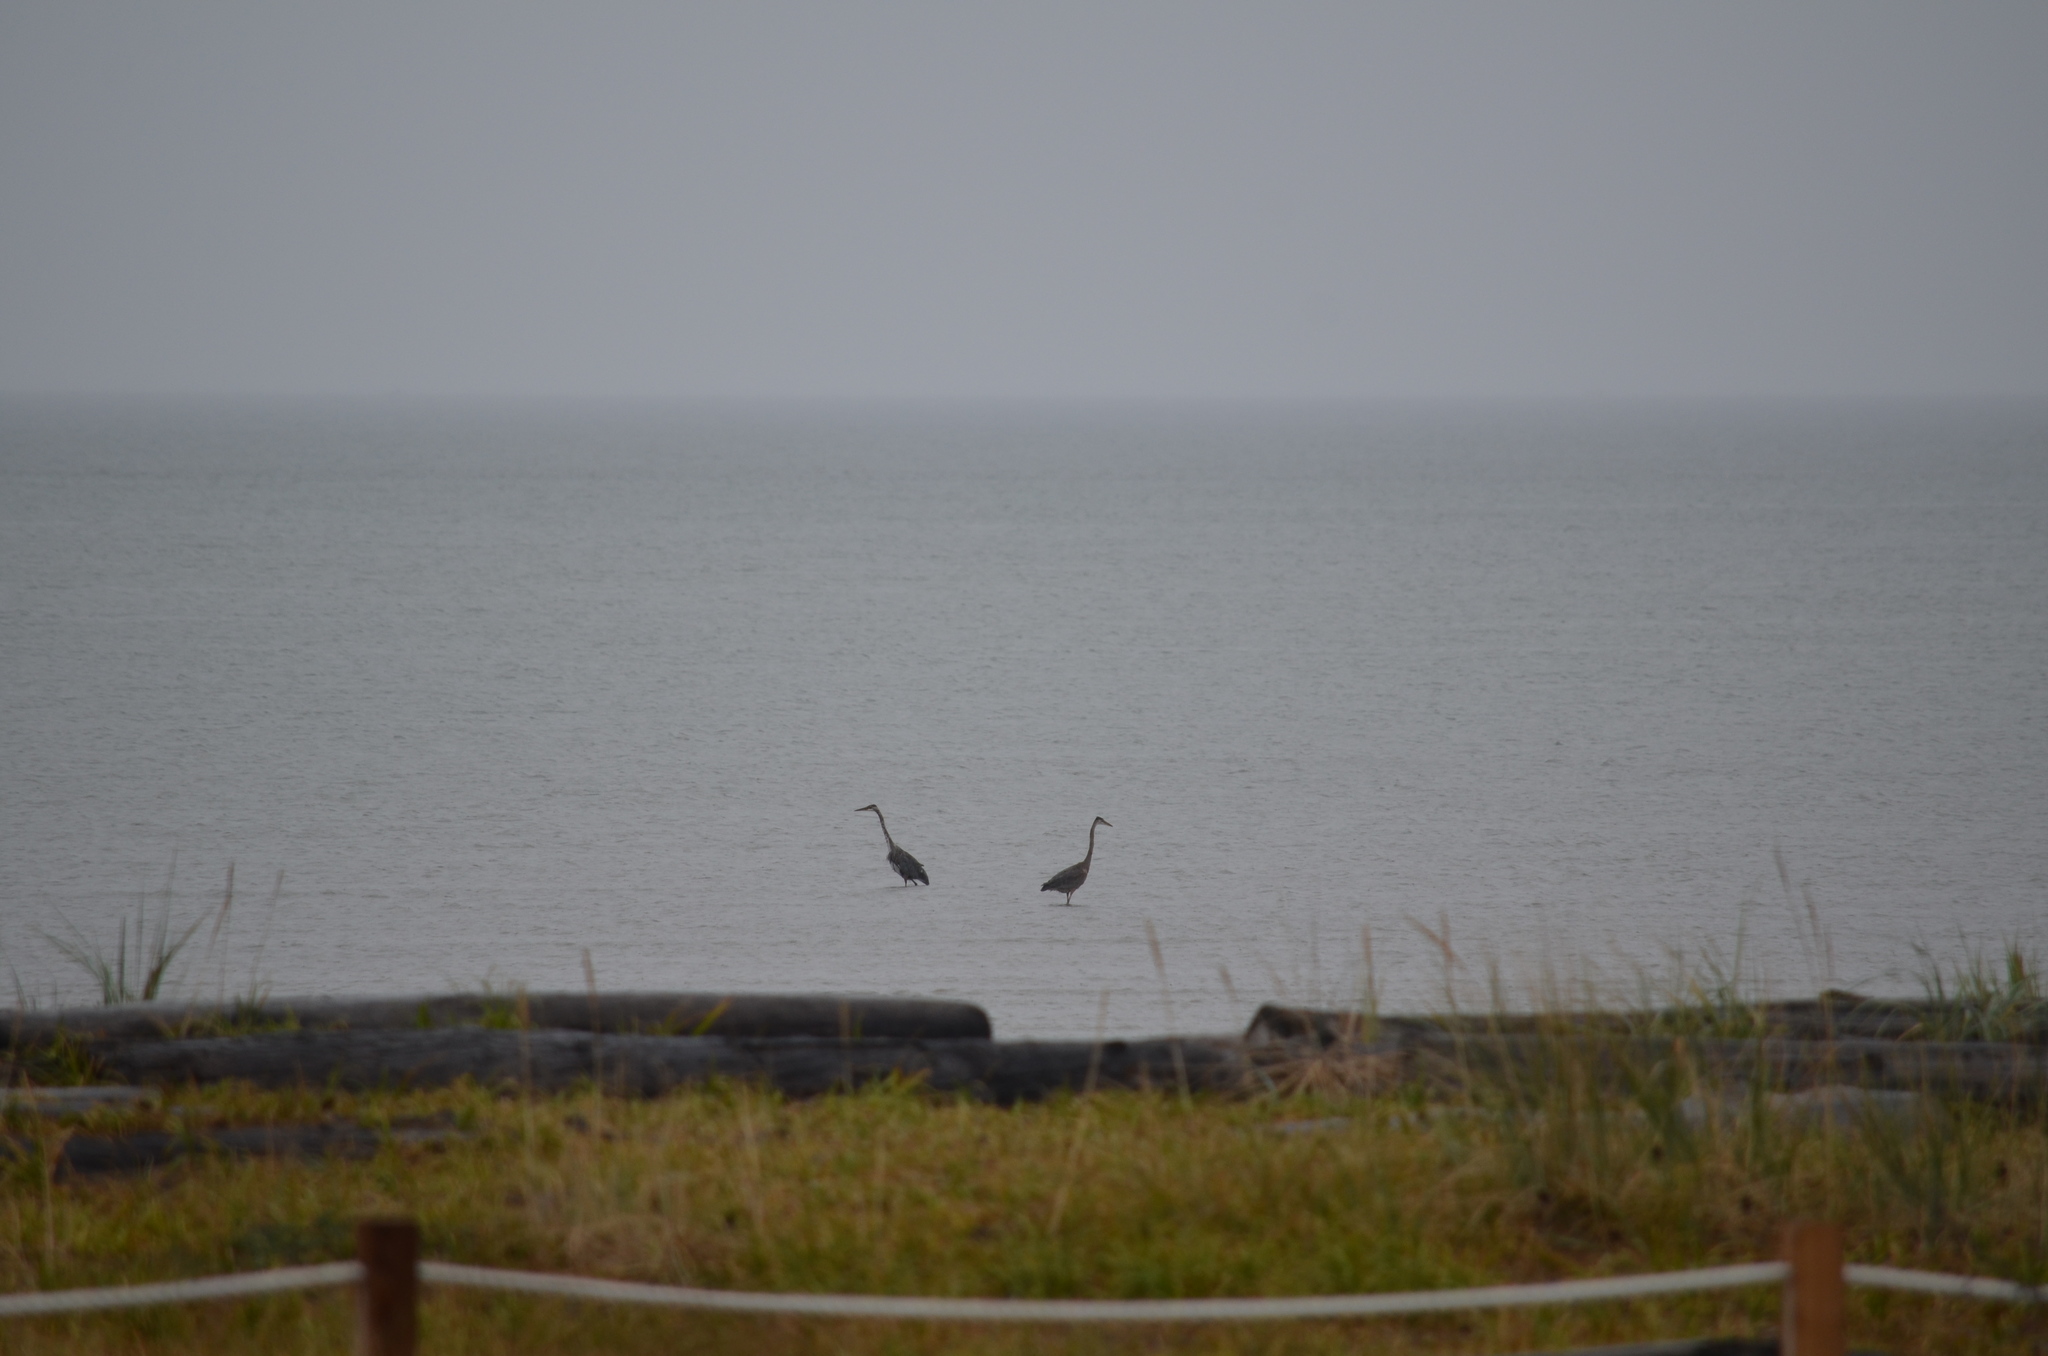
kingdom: Animalia
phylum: Chordata
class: Aves
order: Pelecaniformes
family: Ardeidae
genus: Ardea
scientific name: Ardea herodias
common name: Great blue heron
